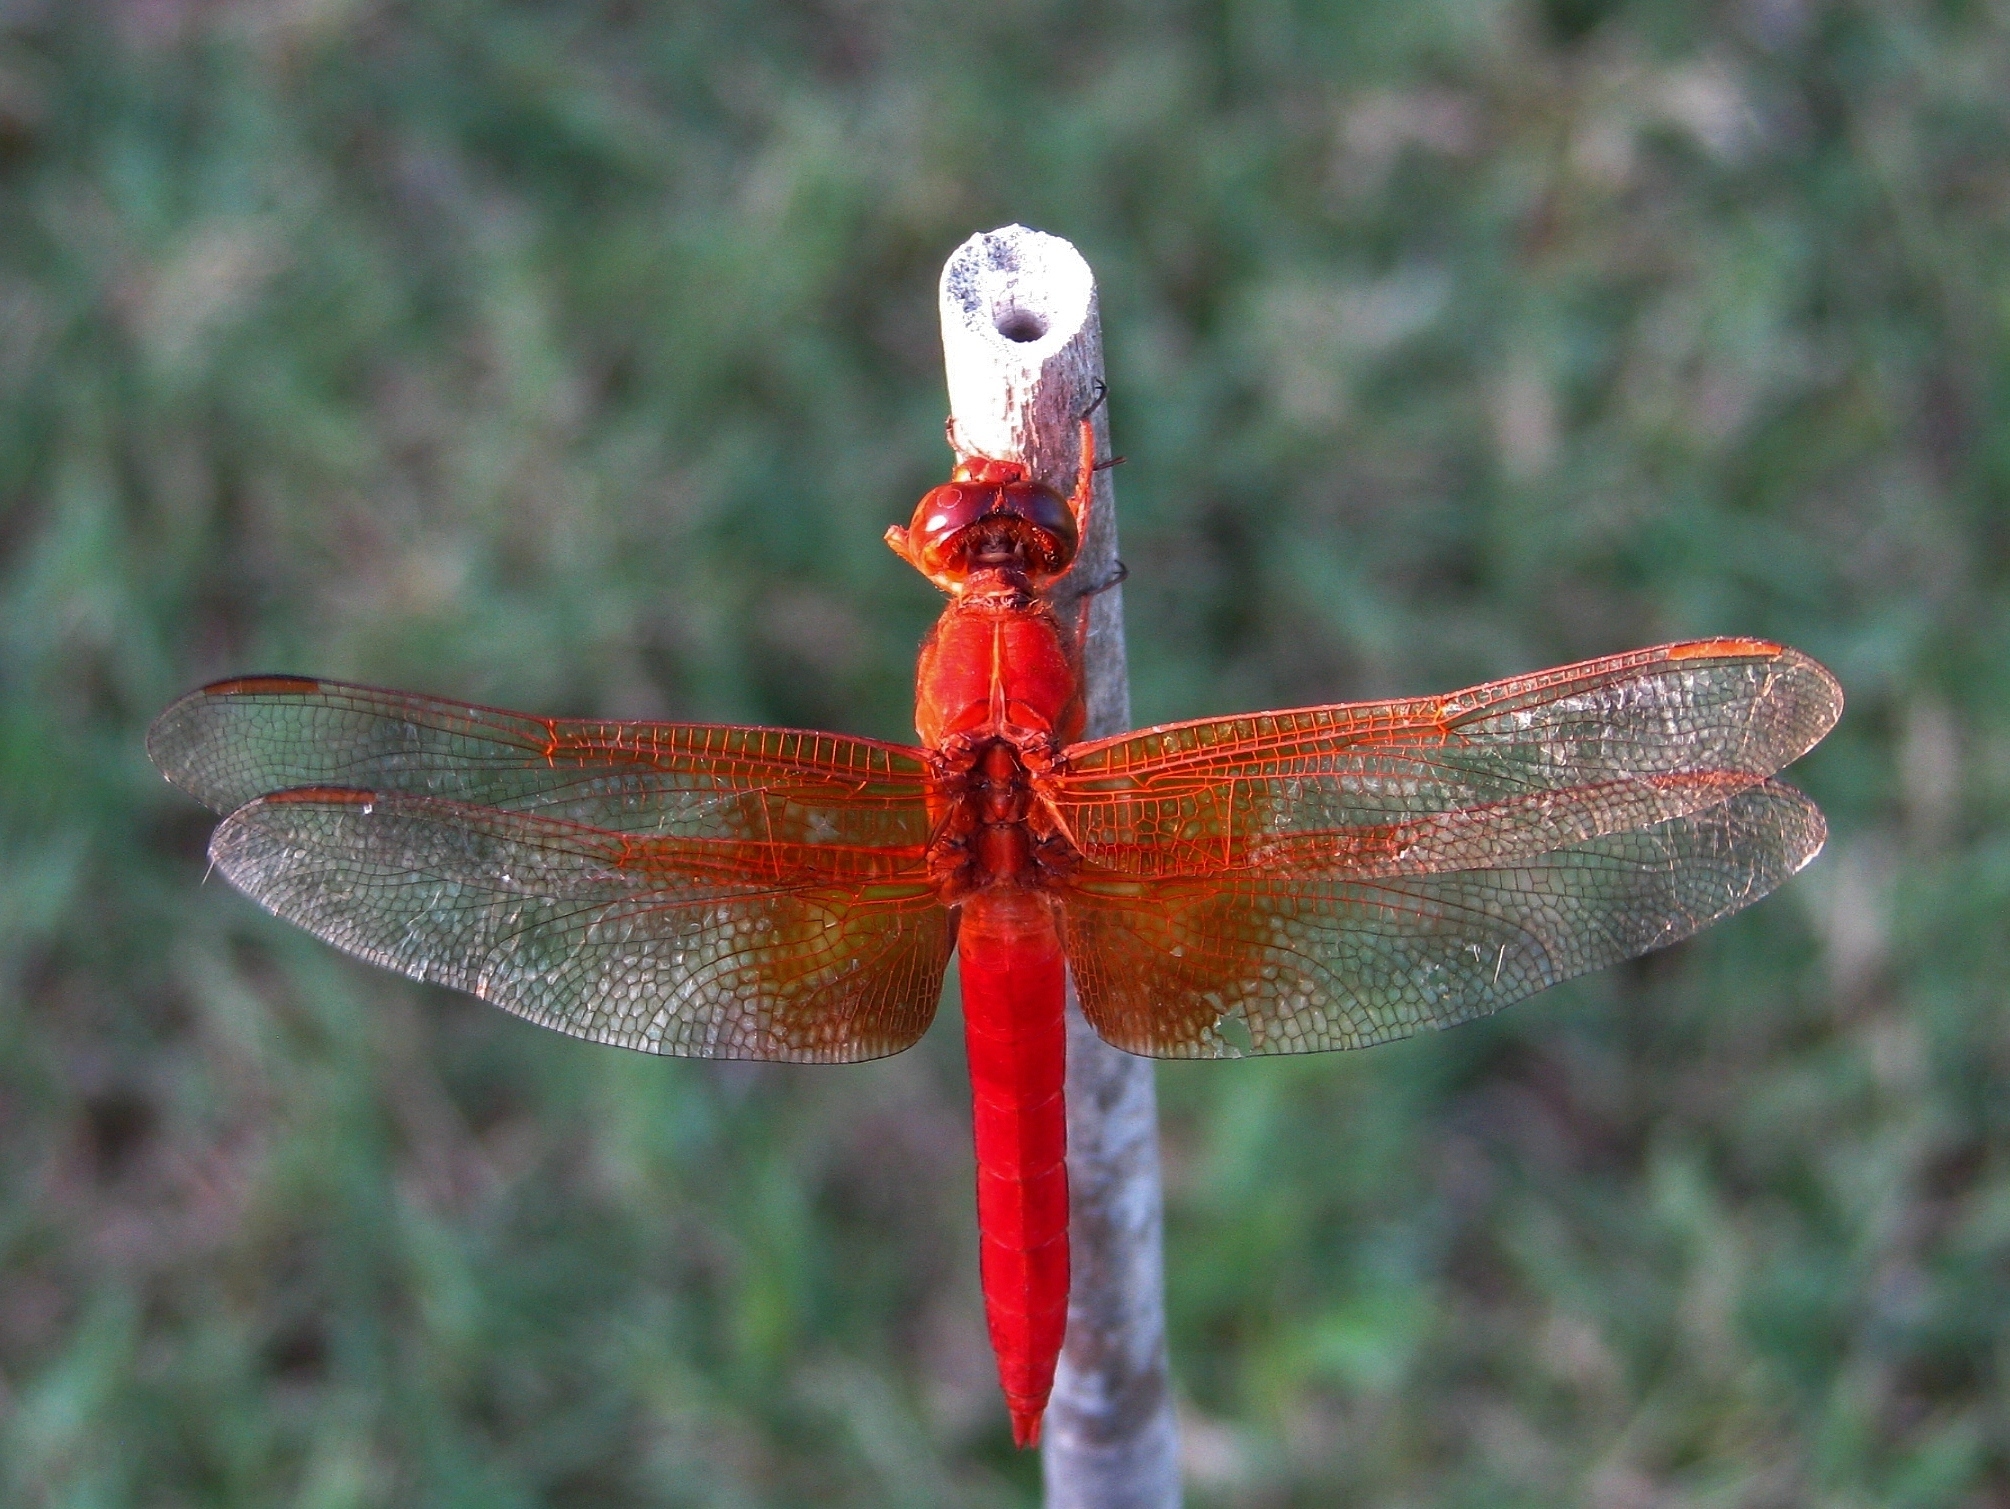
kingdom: Animalia
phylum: Arthropoda
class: Insecta
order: Odonata
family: Libellulidae
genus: Libellula
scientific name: Libellula croceipennis
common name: Neon skimmer
